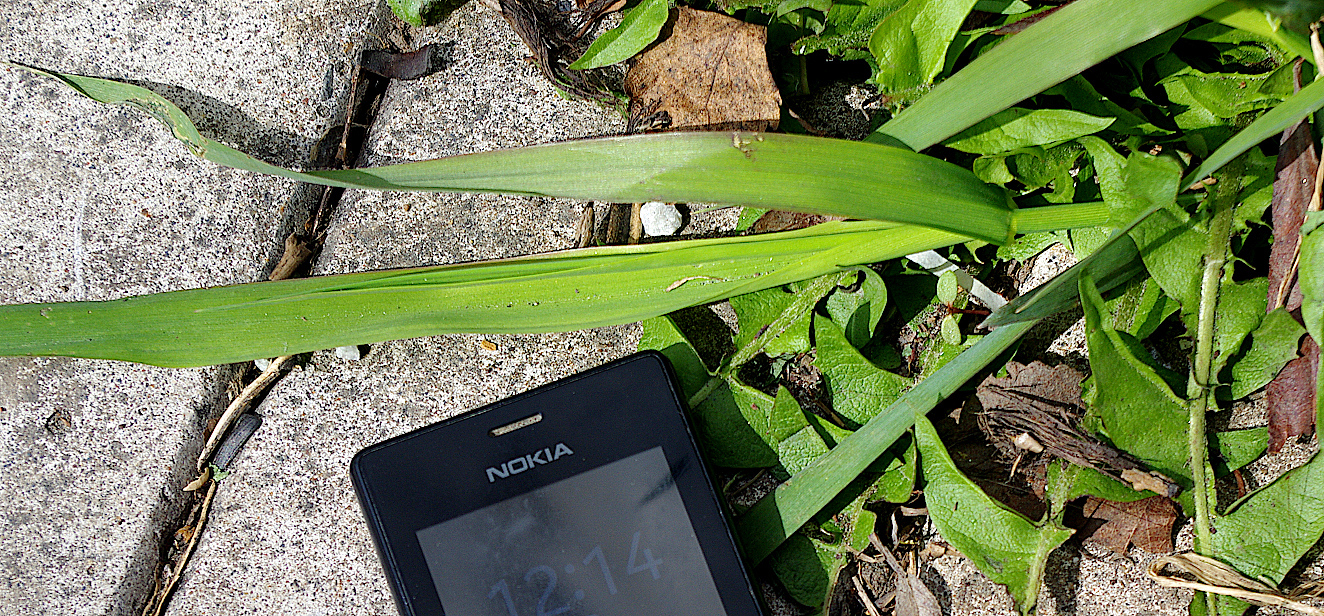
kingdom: Plantae
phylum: Tracheophyta
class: Liliopsida
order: Poales
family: Poaceae
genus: Dactylis
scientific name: Dactylis glomerata
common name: Orchardgrass
